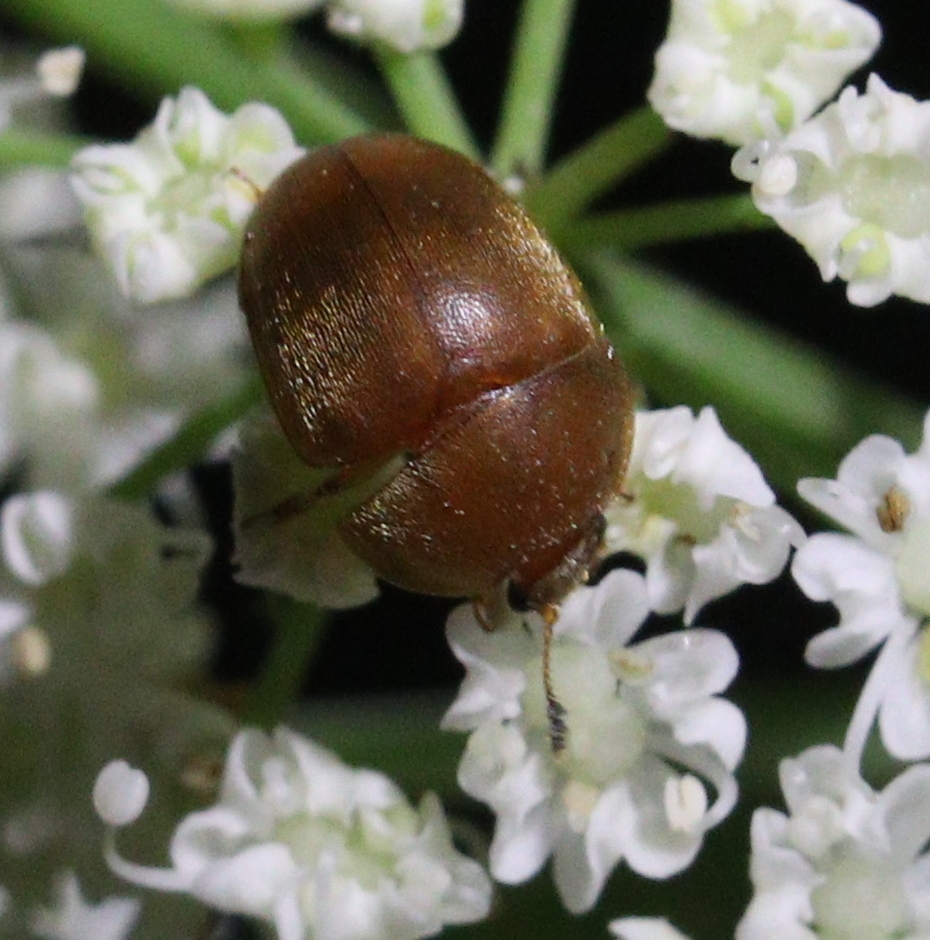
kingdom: Animalia
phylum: Arthropoda
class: Insecta
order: Coleoptera
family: Nitidulidae
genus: Cychramus
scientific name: Cychramus luteus
